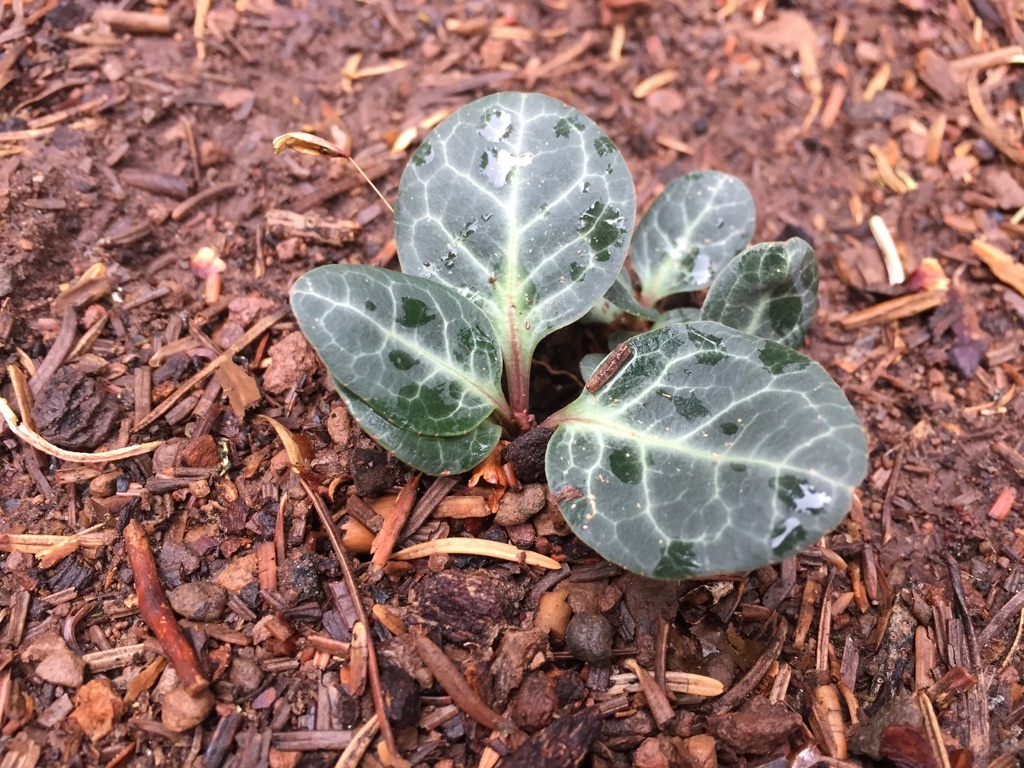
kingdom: Plantae
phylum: Tracheophyta
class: Magnoliopsida
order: Ericales
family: Ericaceae
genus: Pyrola
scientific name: Pyrola picta
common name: White-vein wintergreen
